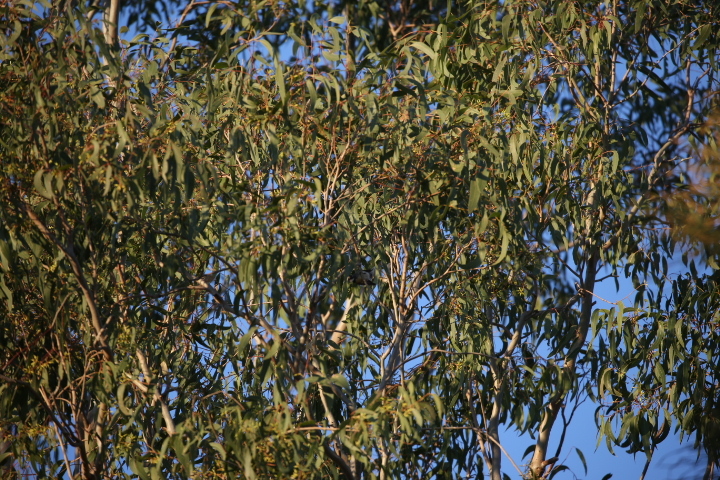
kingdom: Animalia
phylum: Chordata
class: Aves
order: Passeriformes
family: Rhipiduridae
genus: Rhipidura
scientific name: Rhipidura albiscapa
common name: Grey fantail
